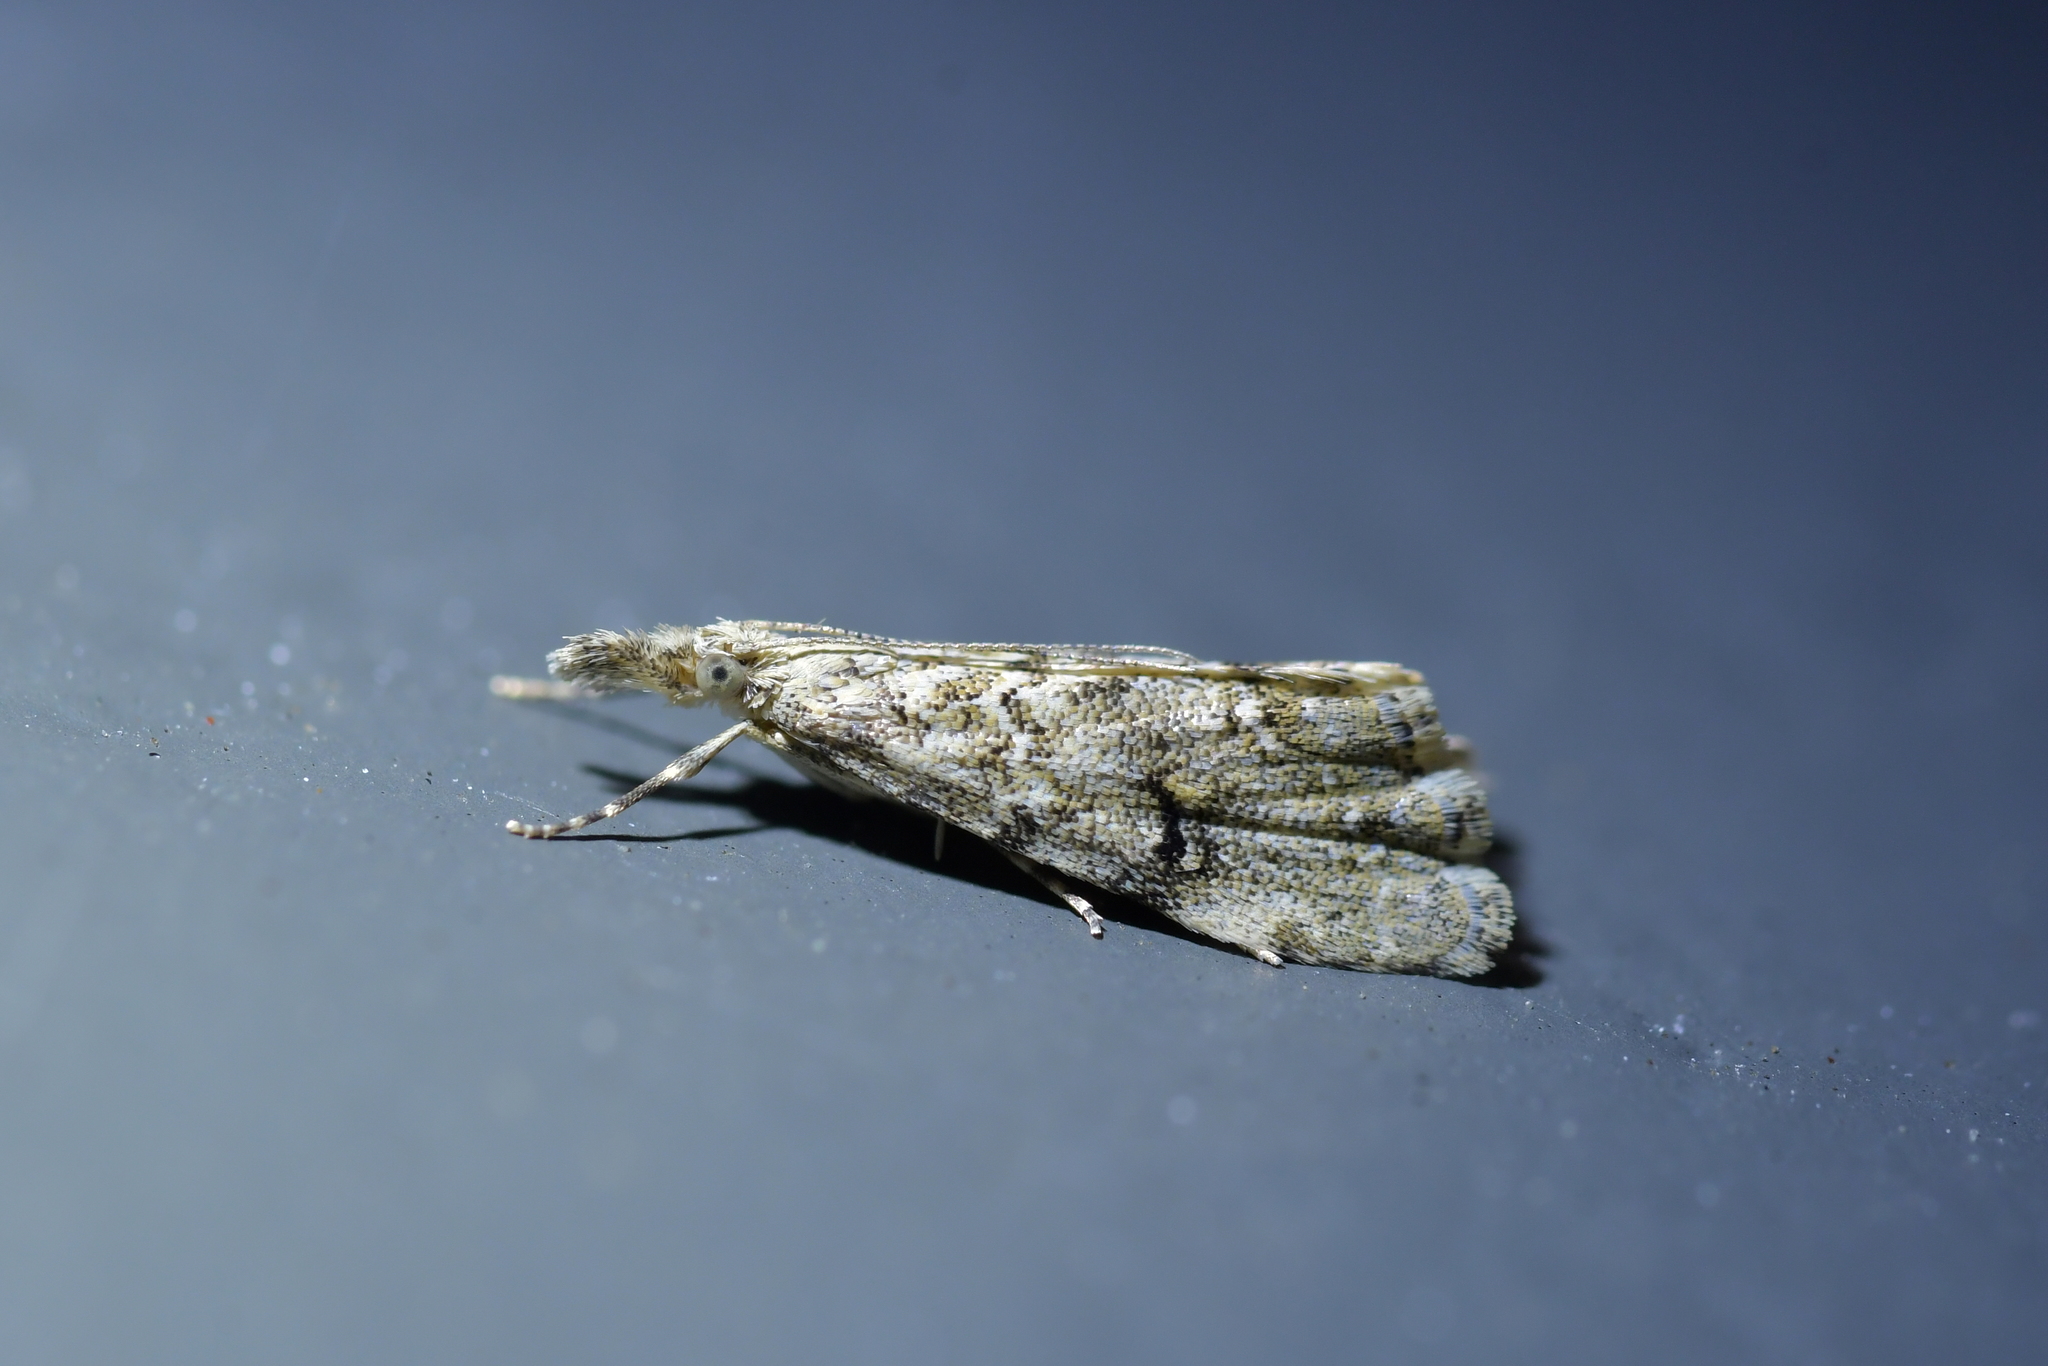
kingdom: Animalia
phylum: Arthropoda
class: Insecta
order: Lepidoptera
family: Crambidae
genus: Glaucocharis
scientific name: Glaucocharis elaina
